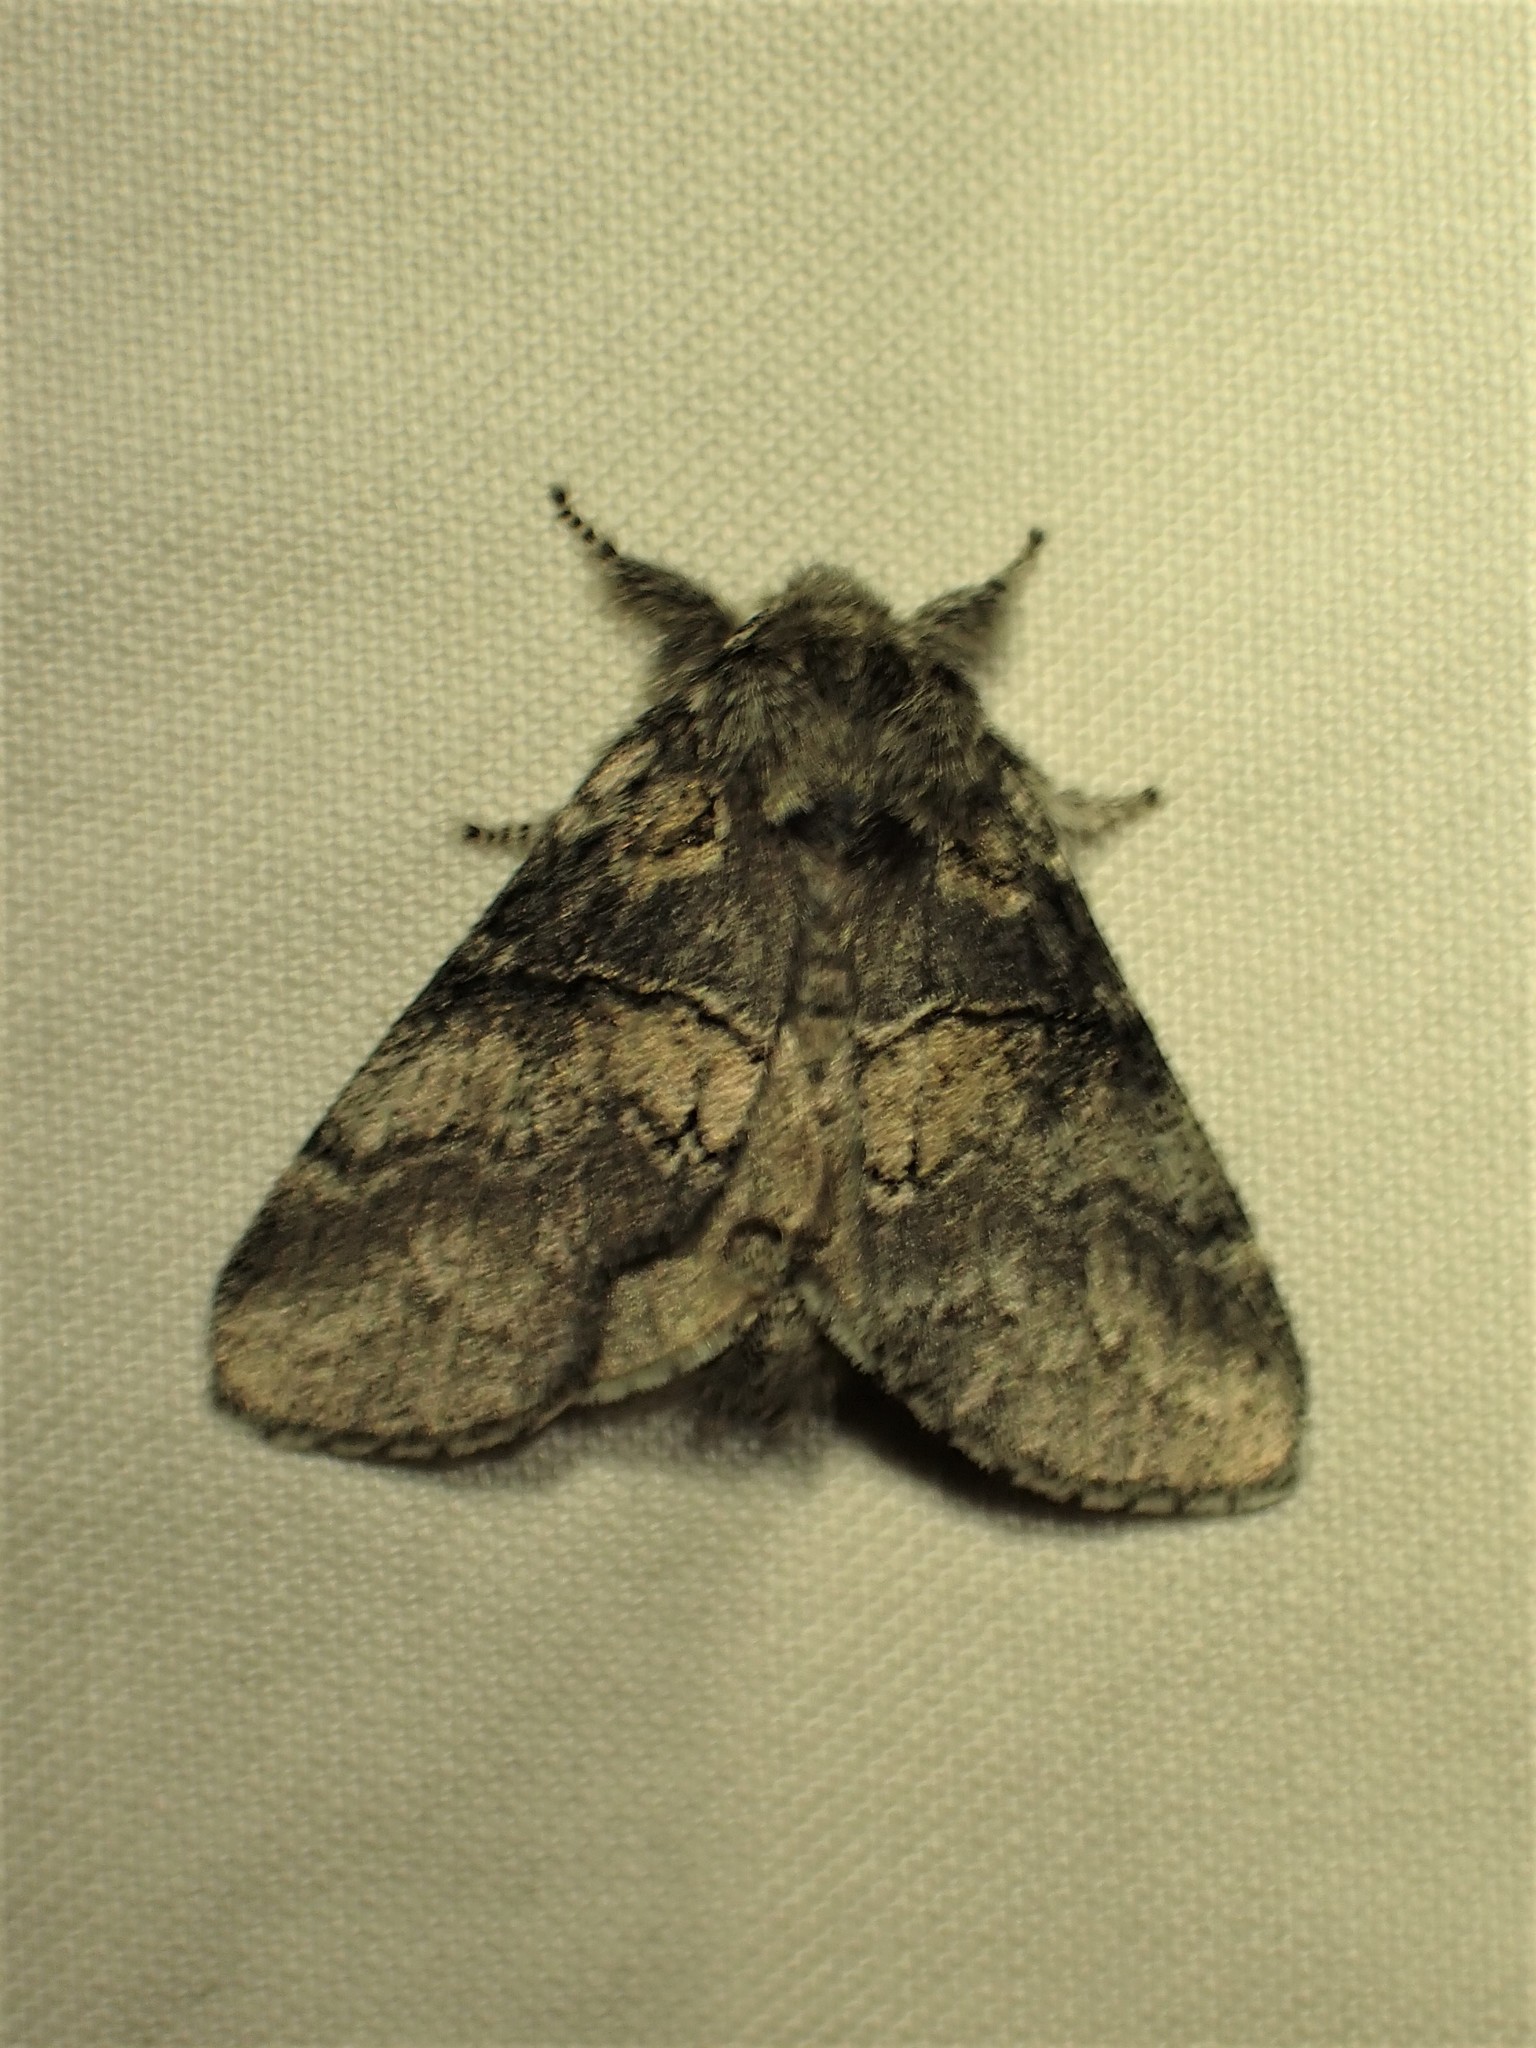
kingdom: Animalia
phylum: Arthropoda
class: Insecta
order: Lepidoptera
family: Notodontidae
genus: Gluphisia
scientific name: Gluphisia septentrionis
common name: Common gluphisia
